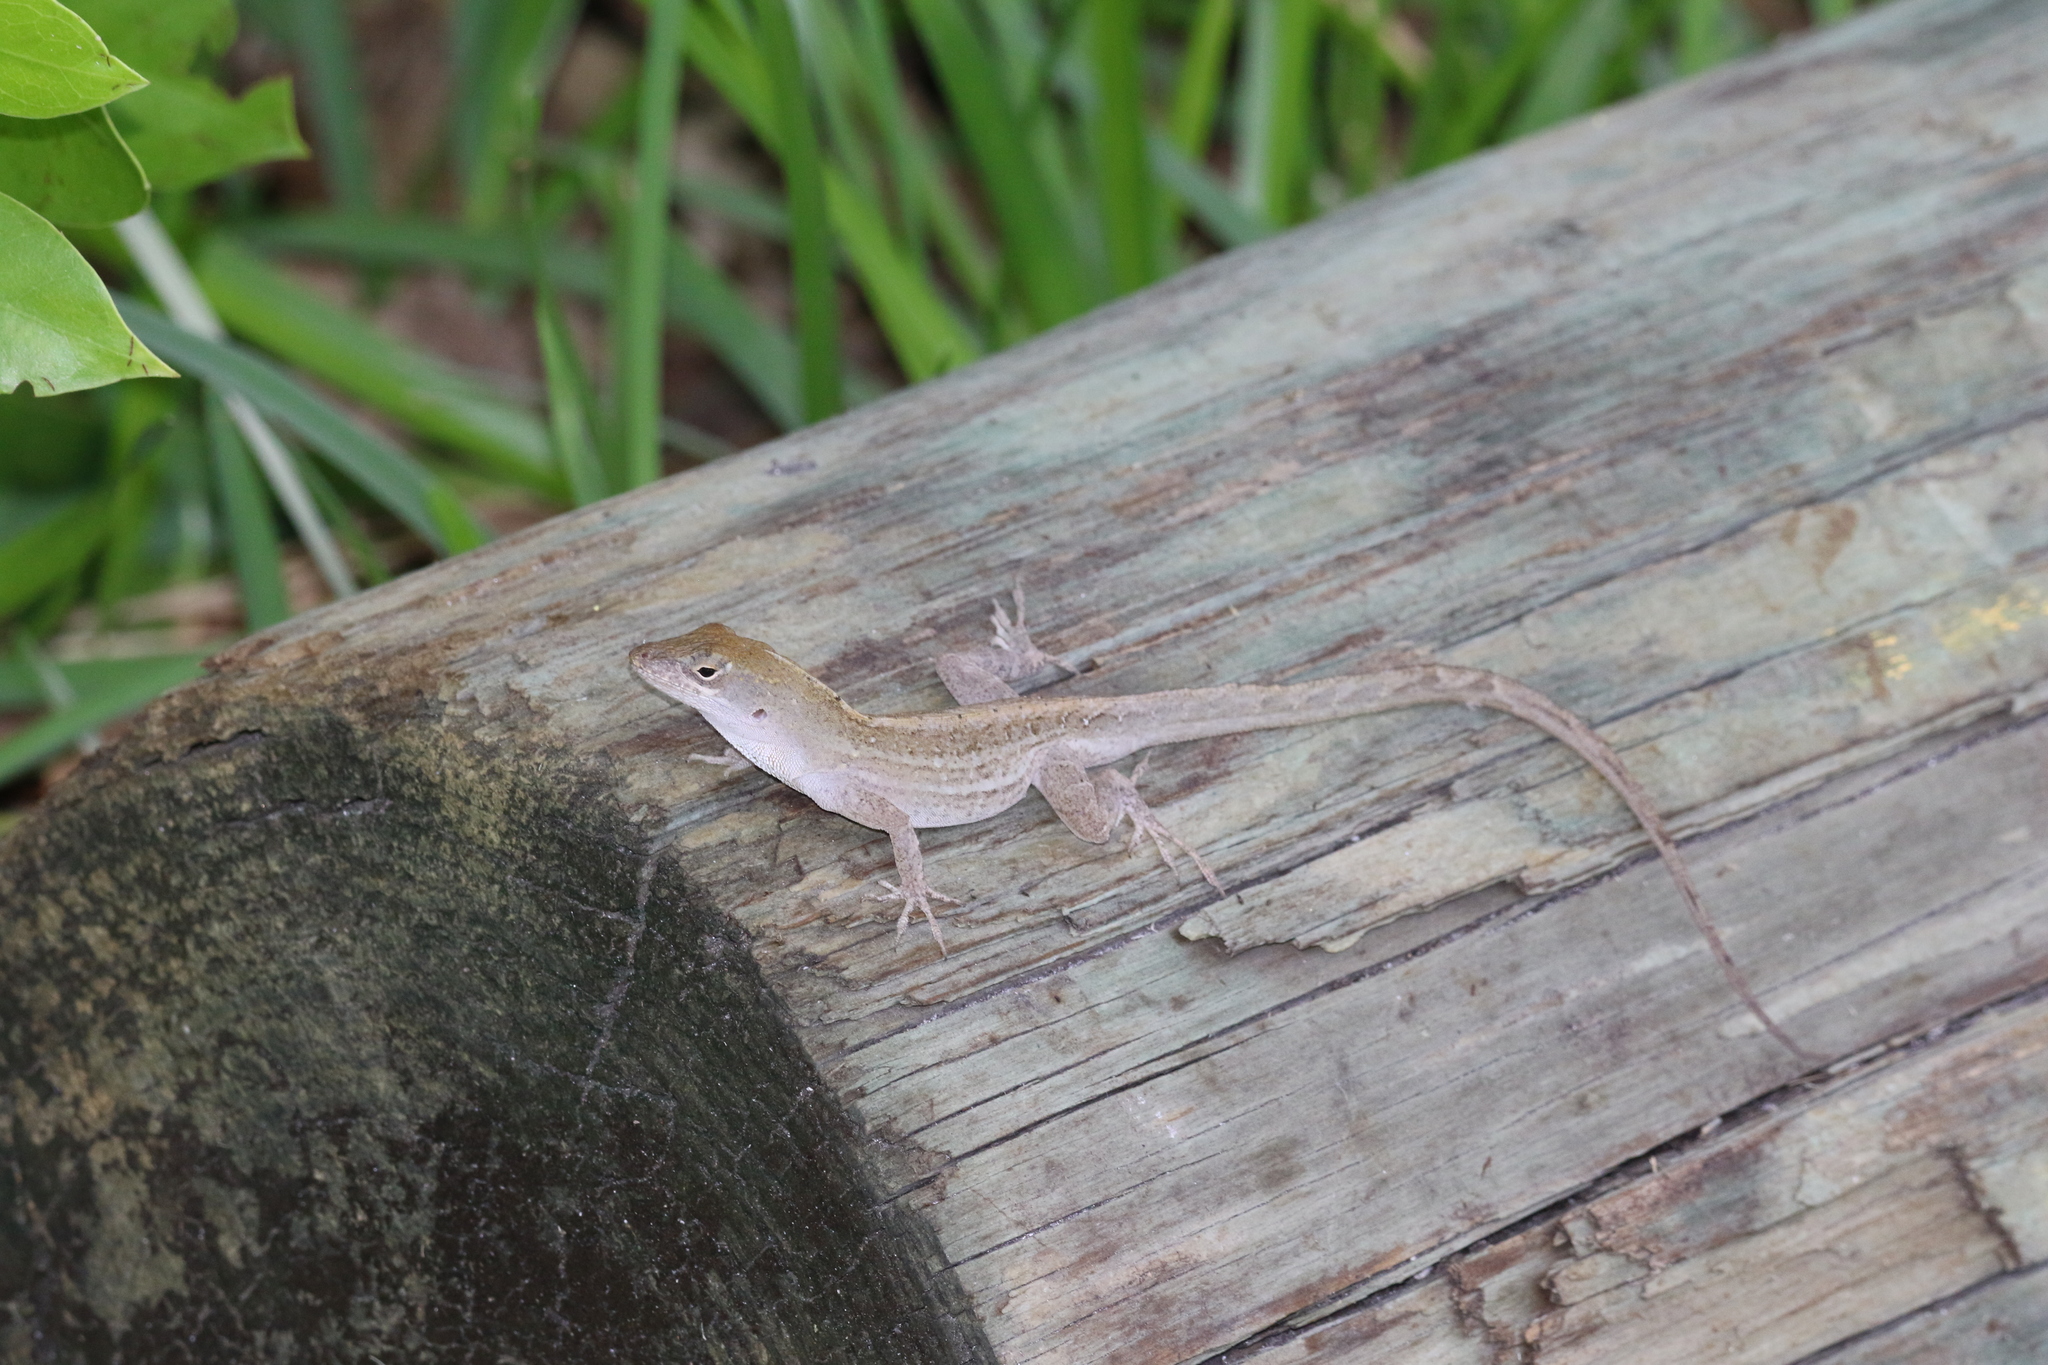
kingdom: Animalia
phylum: Chordata
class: Squamata
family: Dactyloidae
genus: Anolis
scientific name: Anolis sagrei
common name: Brown anole
